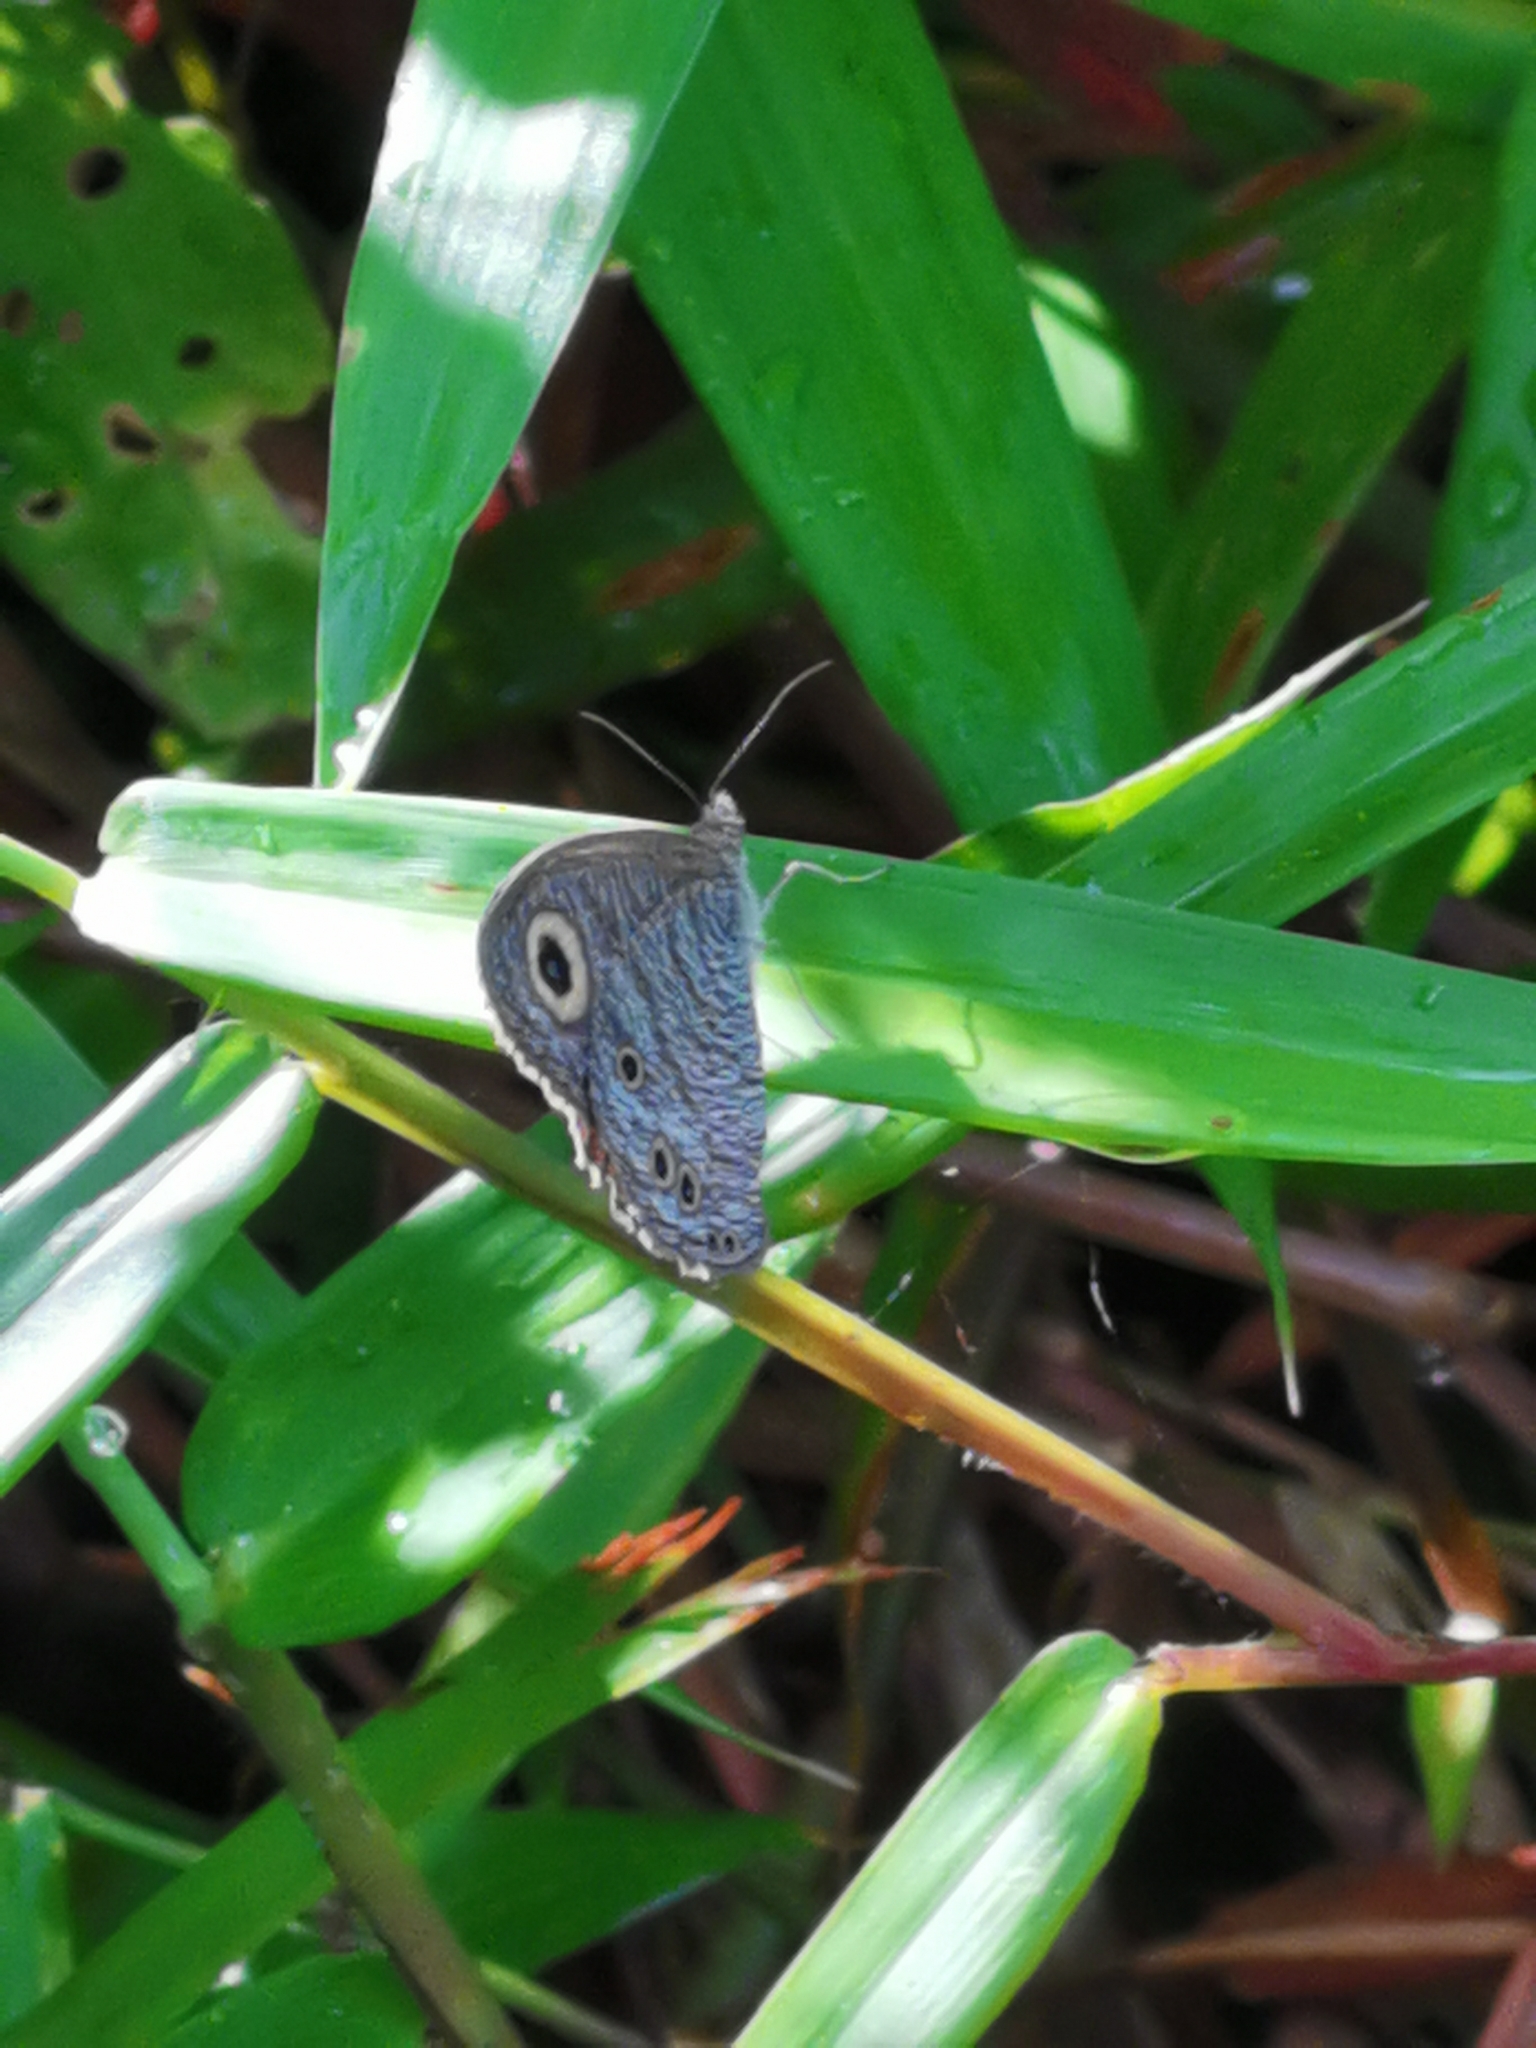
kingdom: Animalia
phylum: Arthropoda
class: Insecta
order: Lepidoptera
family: Nymphalidae
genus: Ypthima
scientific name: Ypthima baldus
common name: Common five-ring
